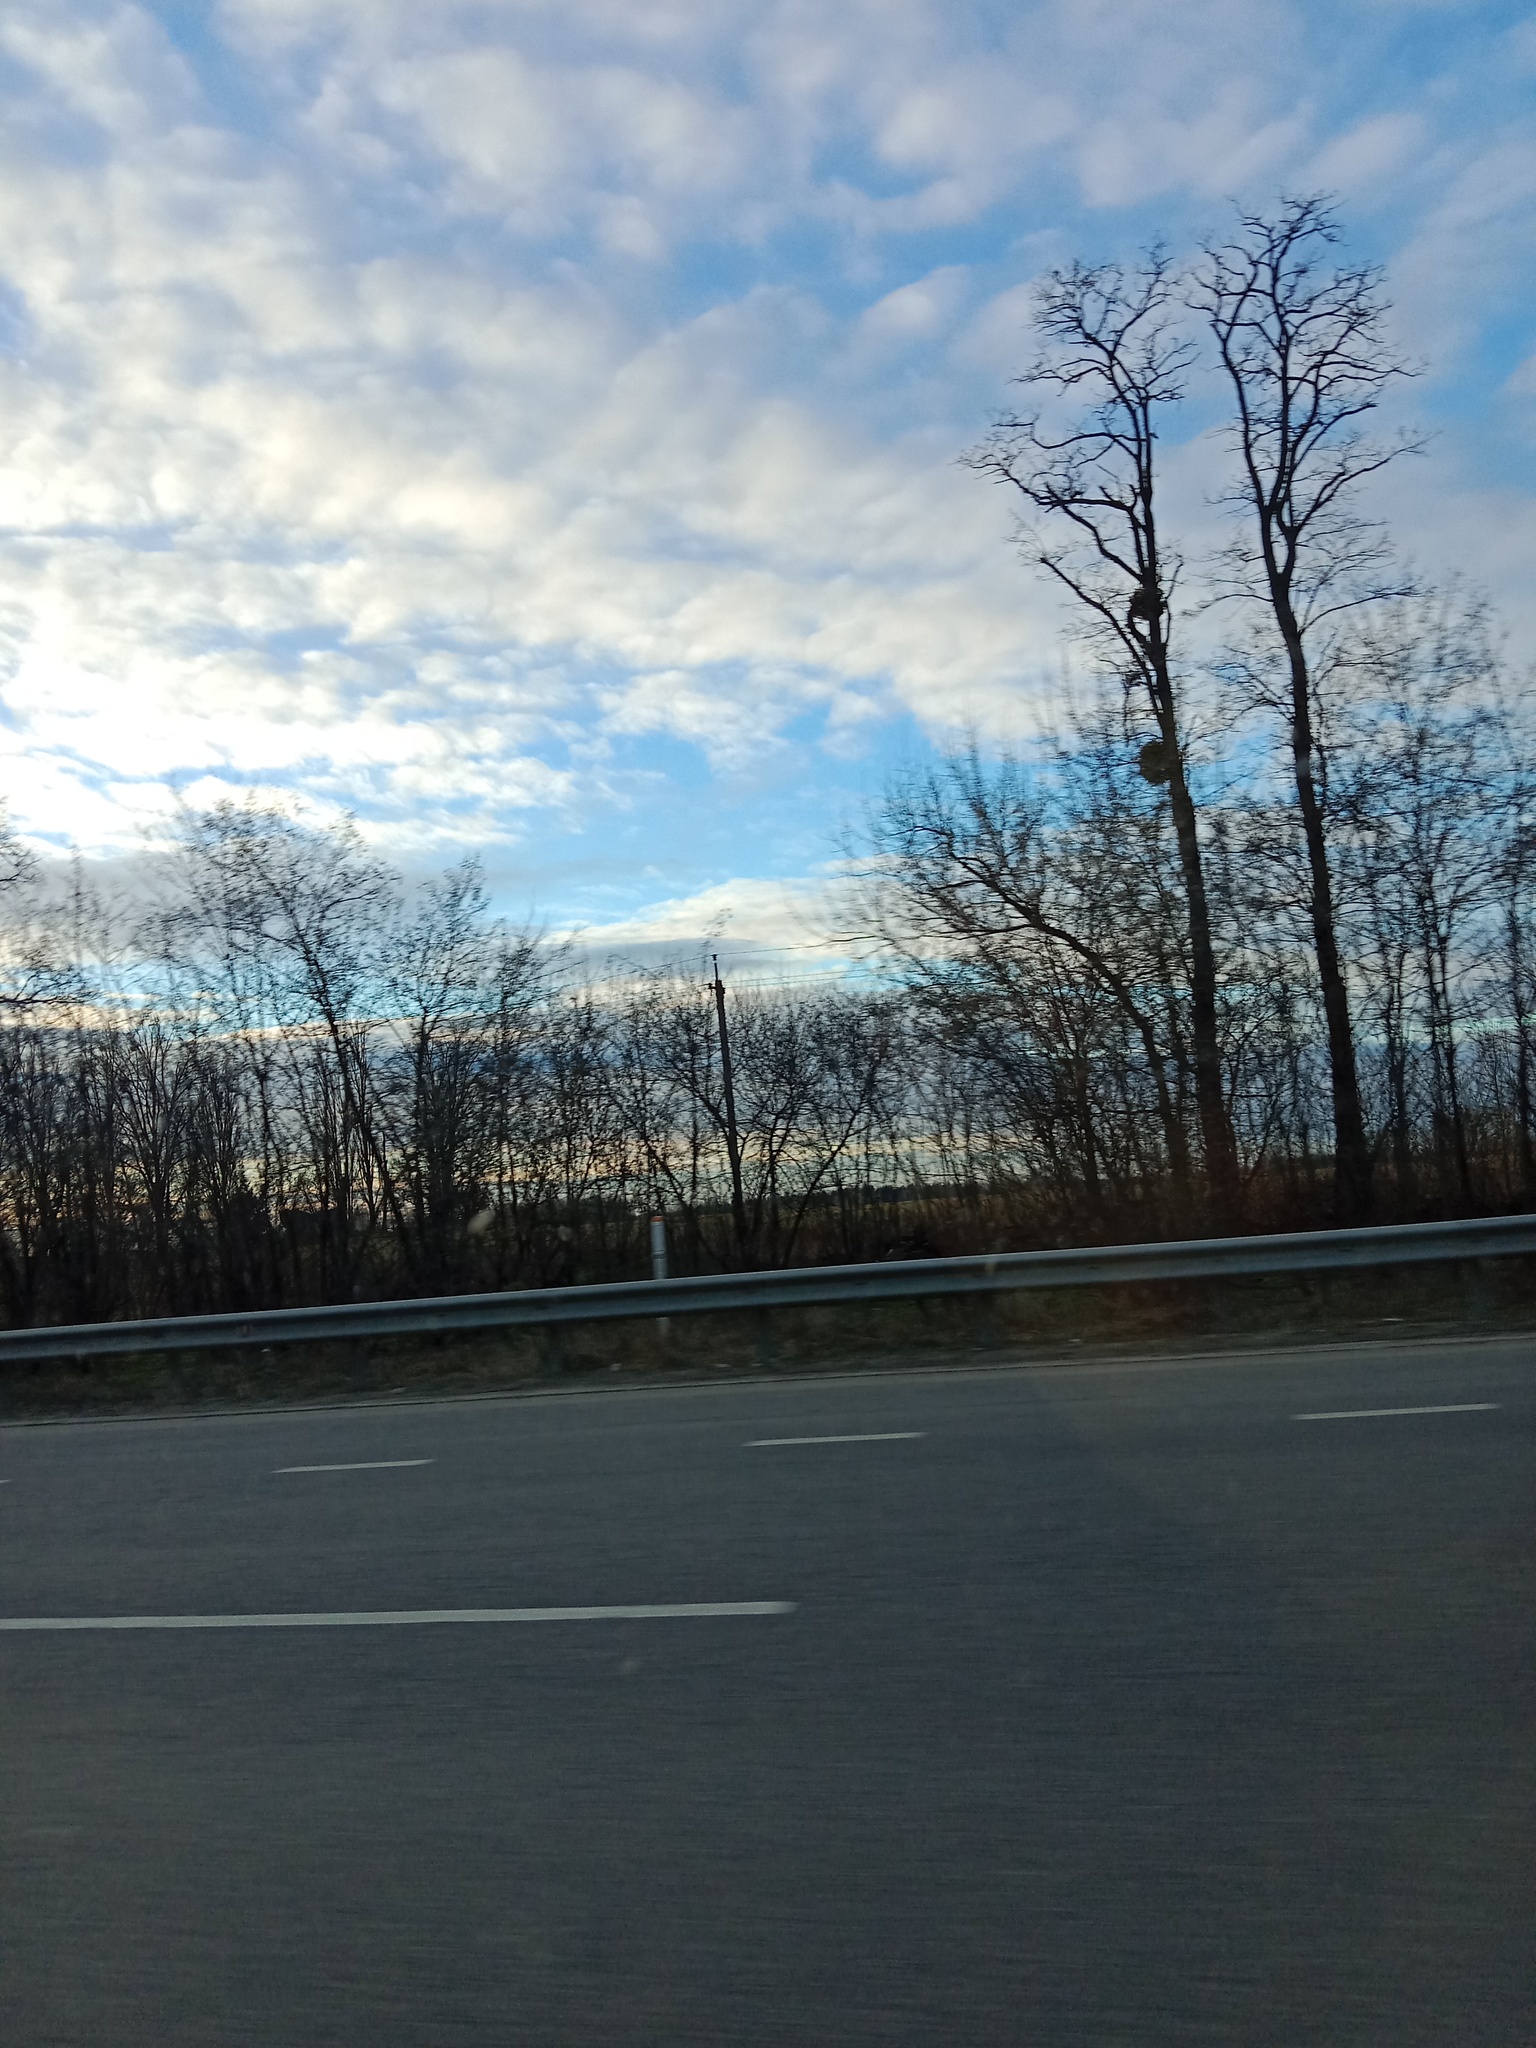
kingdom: Plantae
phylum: Tracheophyta
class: Magnoliopsida
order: Santalales
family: Viscaceae
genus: Viscum
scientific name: Viscum album
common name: Mistletoe
